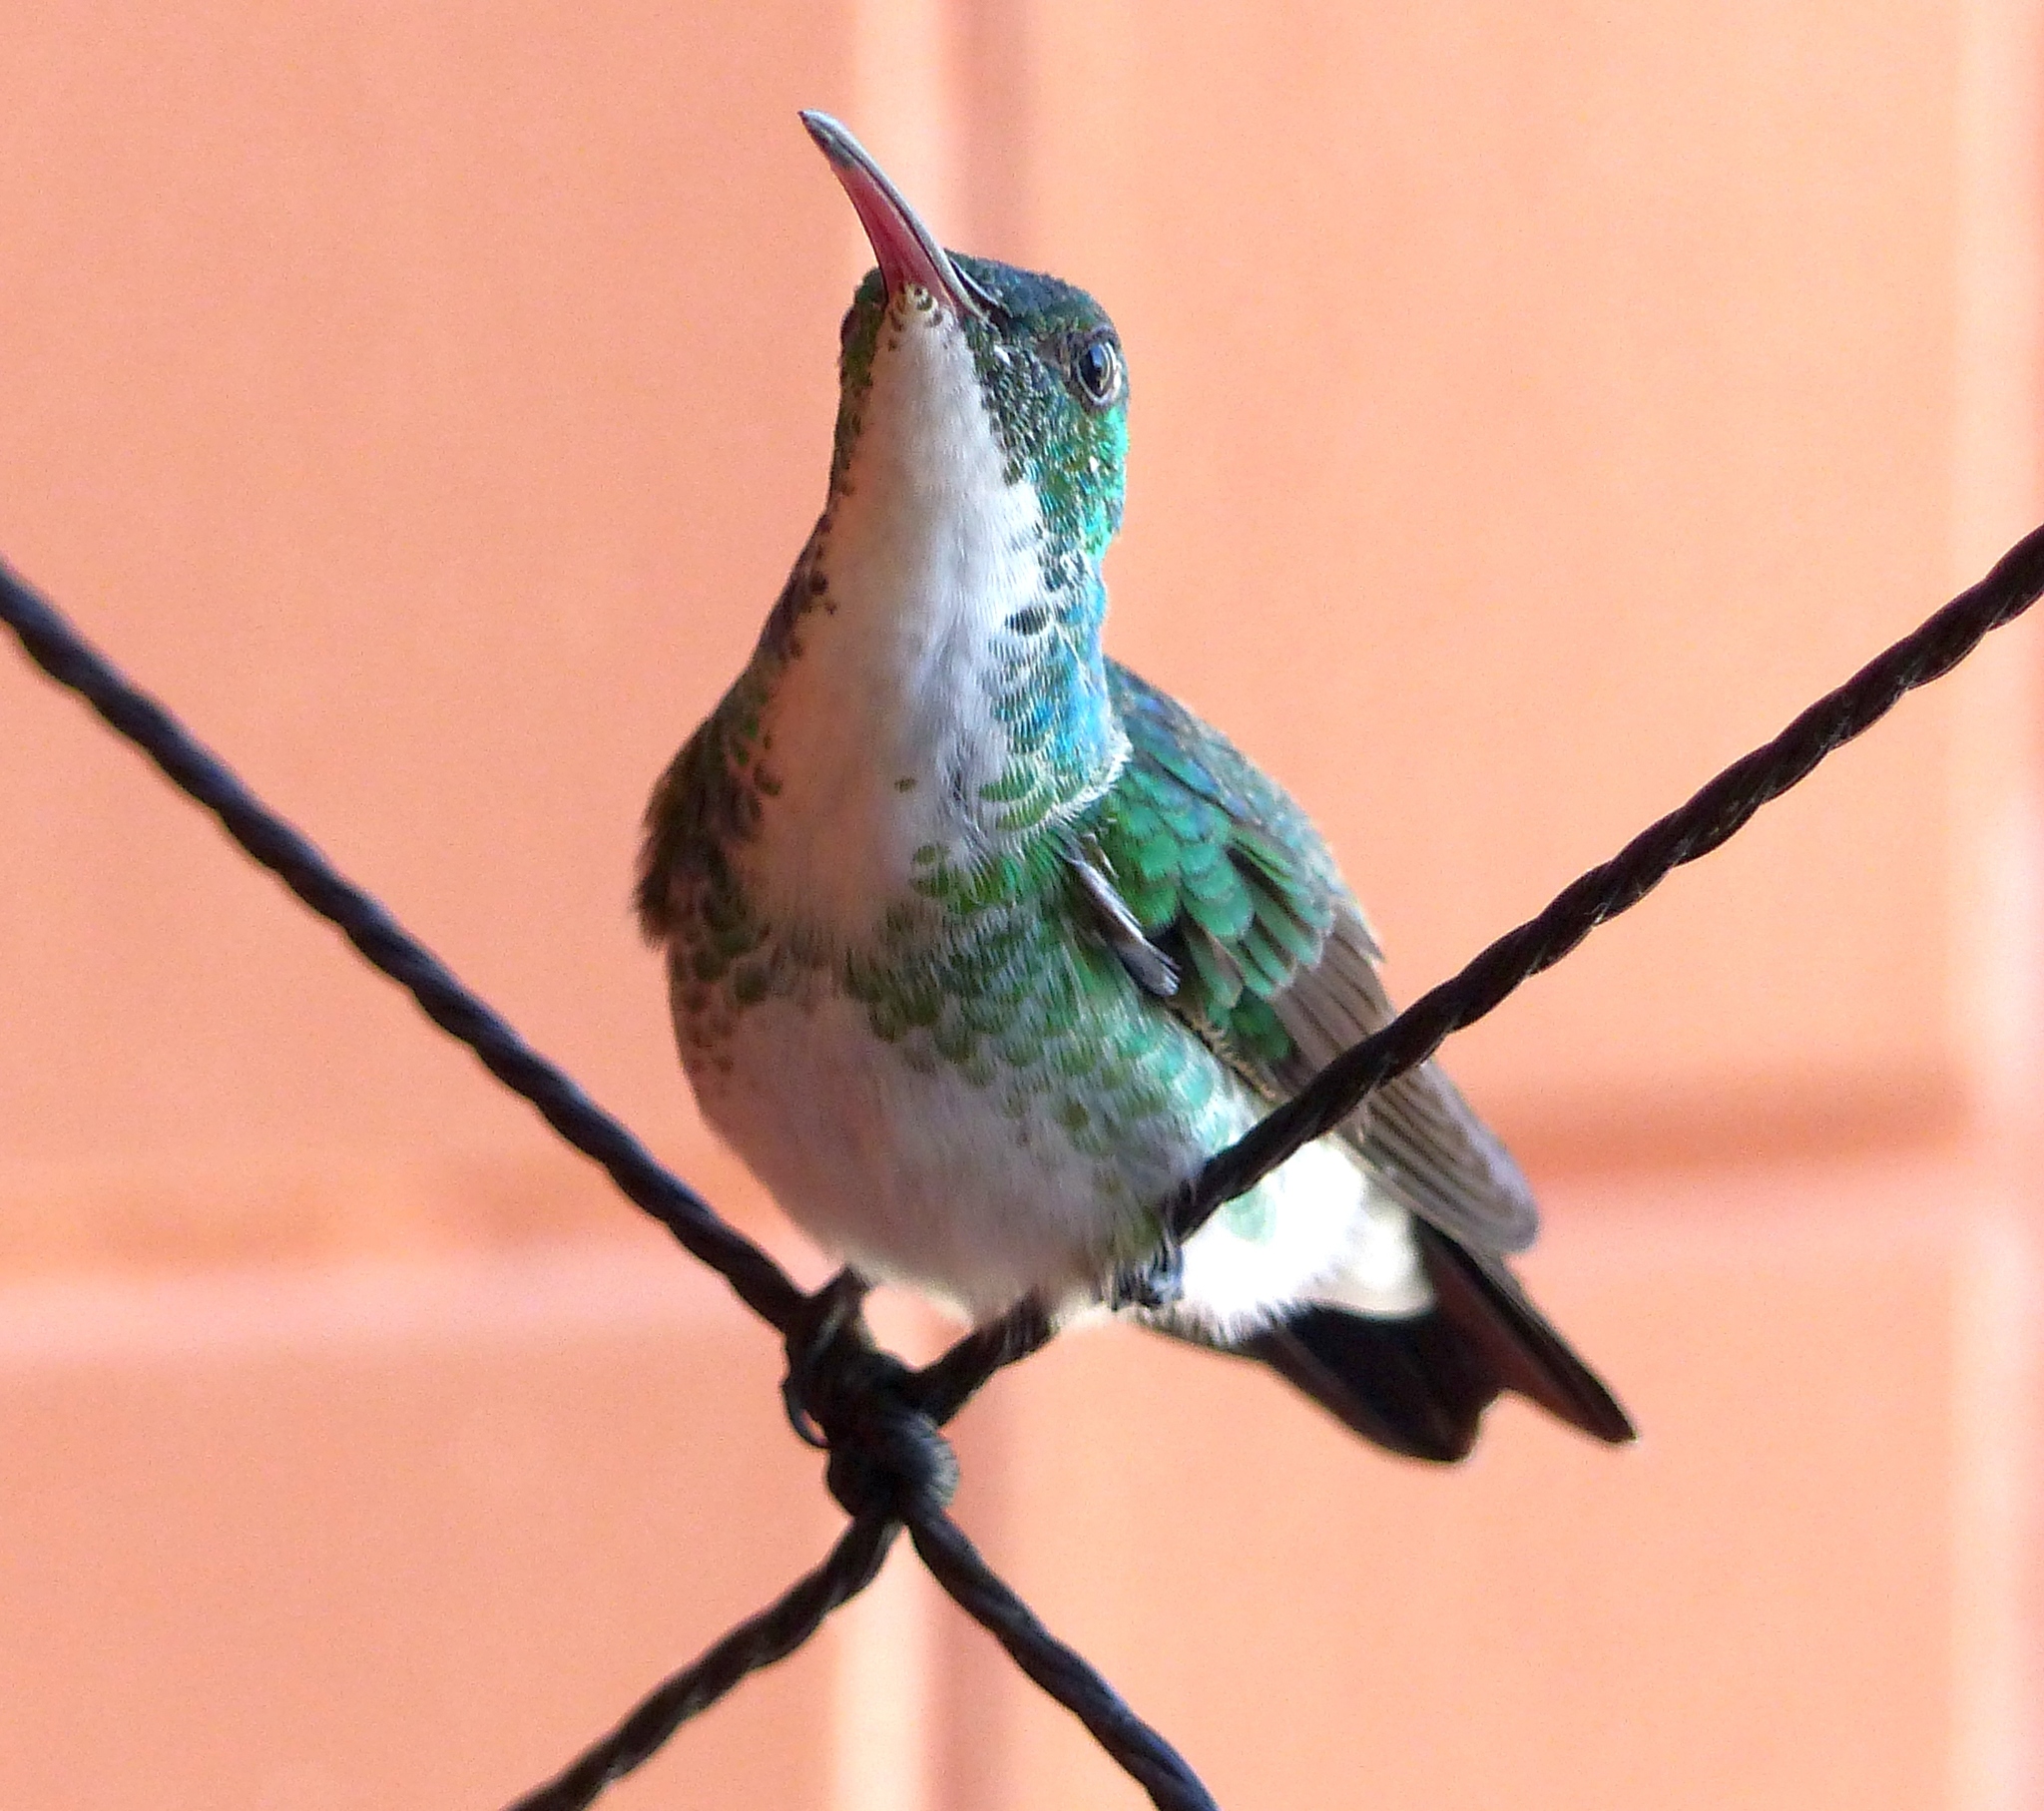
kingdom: Animalia
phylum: Chordata
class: Aves
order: Apodiformes
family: Trochilidae
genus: Chrysuronia
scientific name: Chrysuronia leucogaster
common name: Plain-bellied emerald
